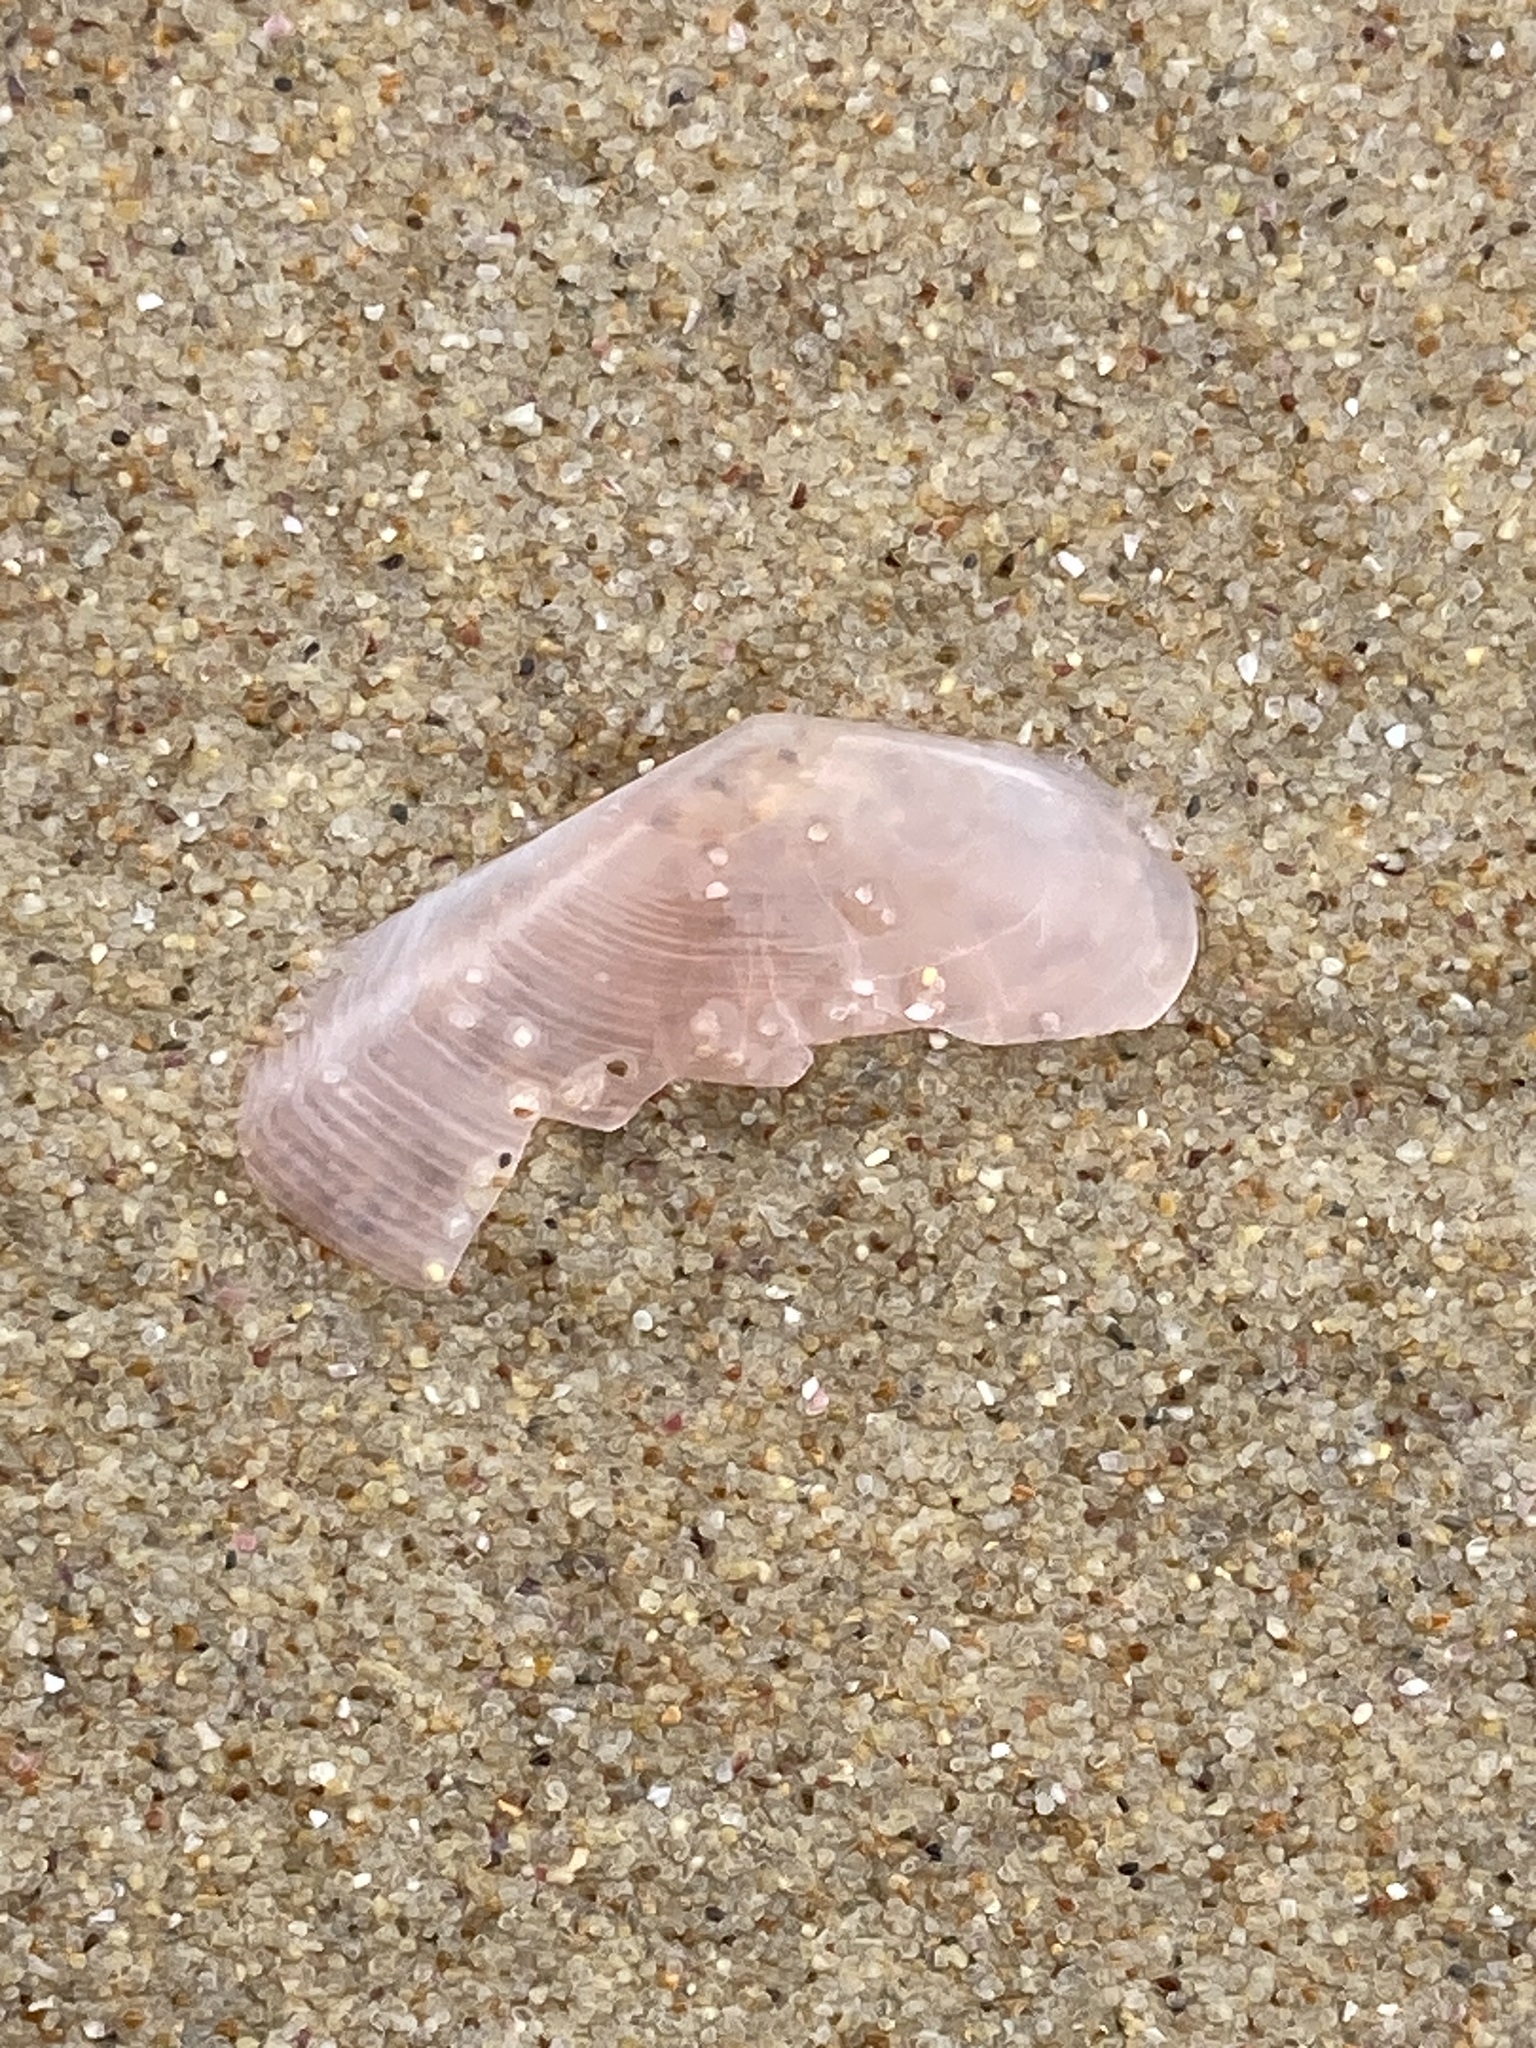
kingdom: Animalia
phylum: Mollusca
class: Bivalvia
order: Cardiida
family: Tellinidae
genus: Tellinota
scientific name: Tellinota albinella
